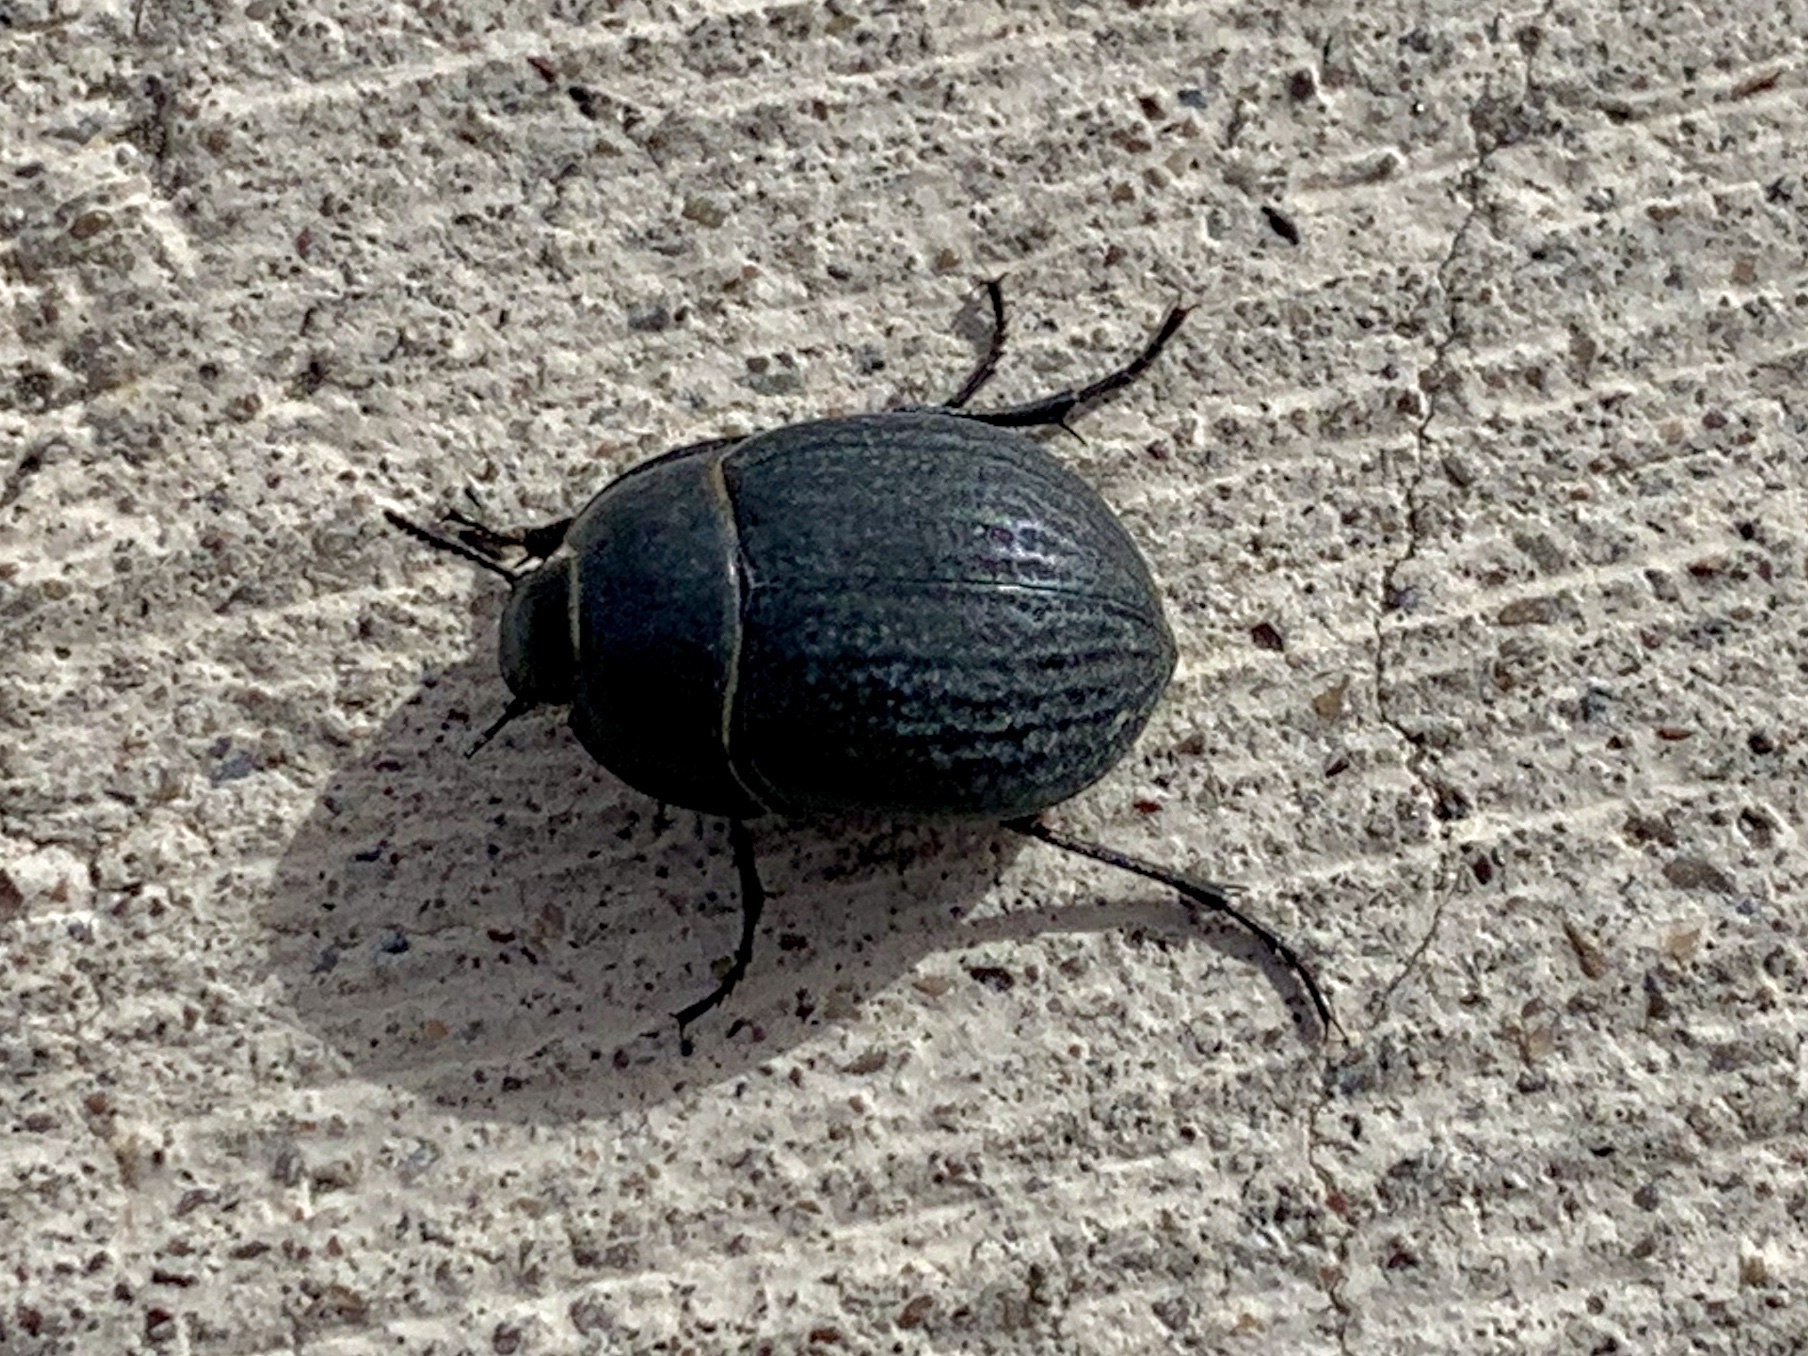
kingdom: Animalia
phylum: Arthropoda
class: Insecta
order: Coleoptera
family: Tenebrionidae
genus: Eusattus
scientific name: Eusattus reticulatus
